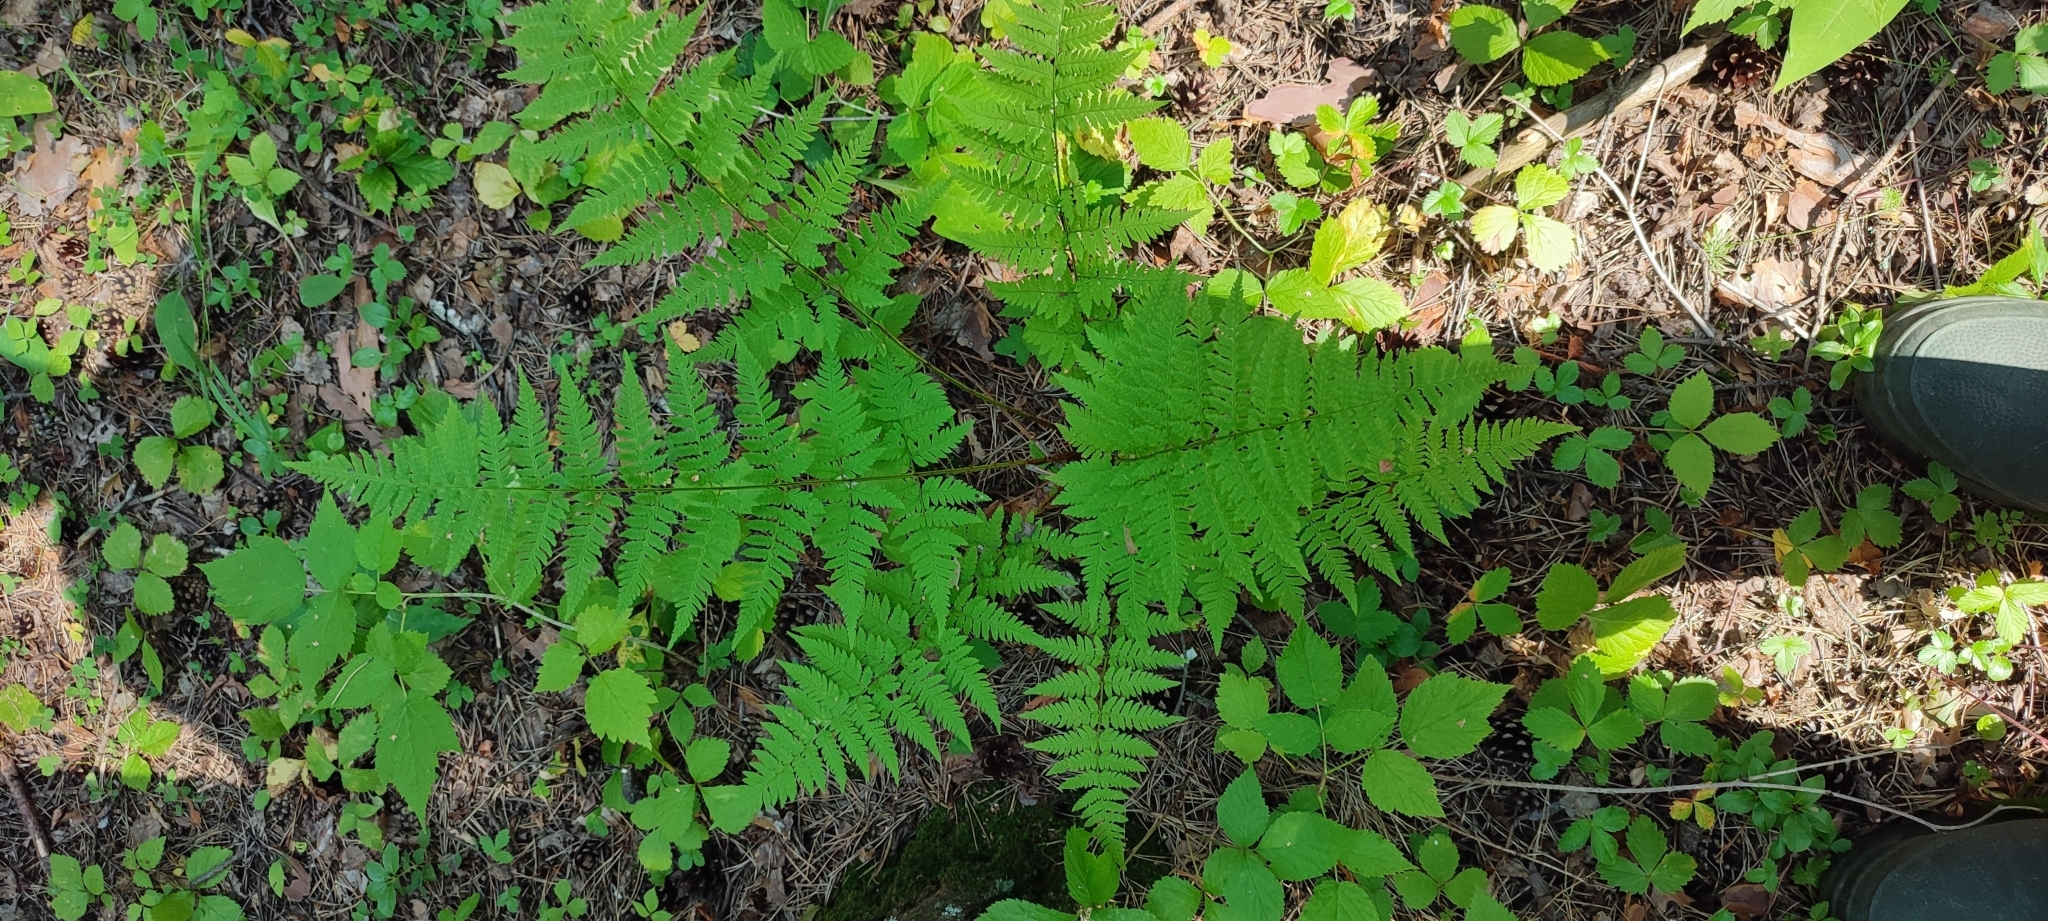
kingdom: Plantae
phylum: Tracheophyta
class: Polypodiopsida
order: Polypodiales
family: Dryopteridaceae
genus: Dryopteris
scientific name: Dryopteris carthusiana
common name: Narrow buckler-fern
